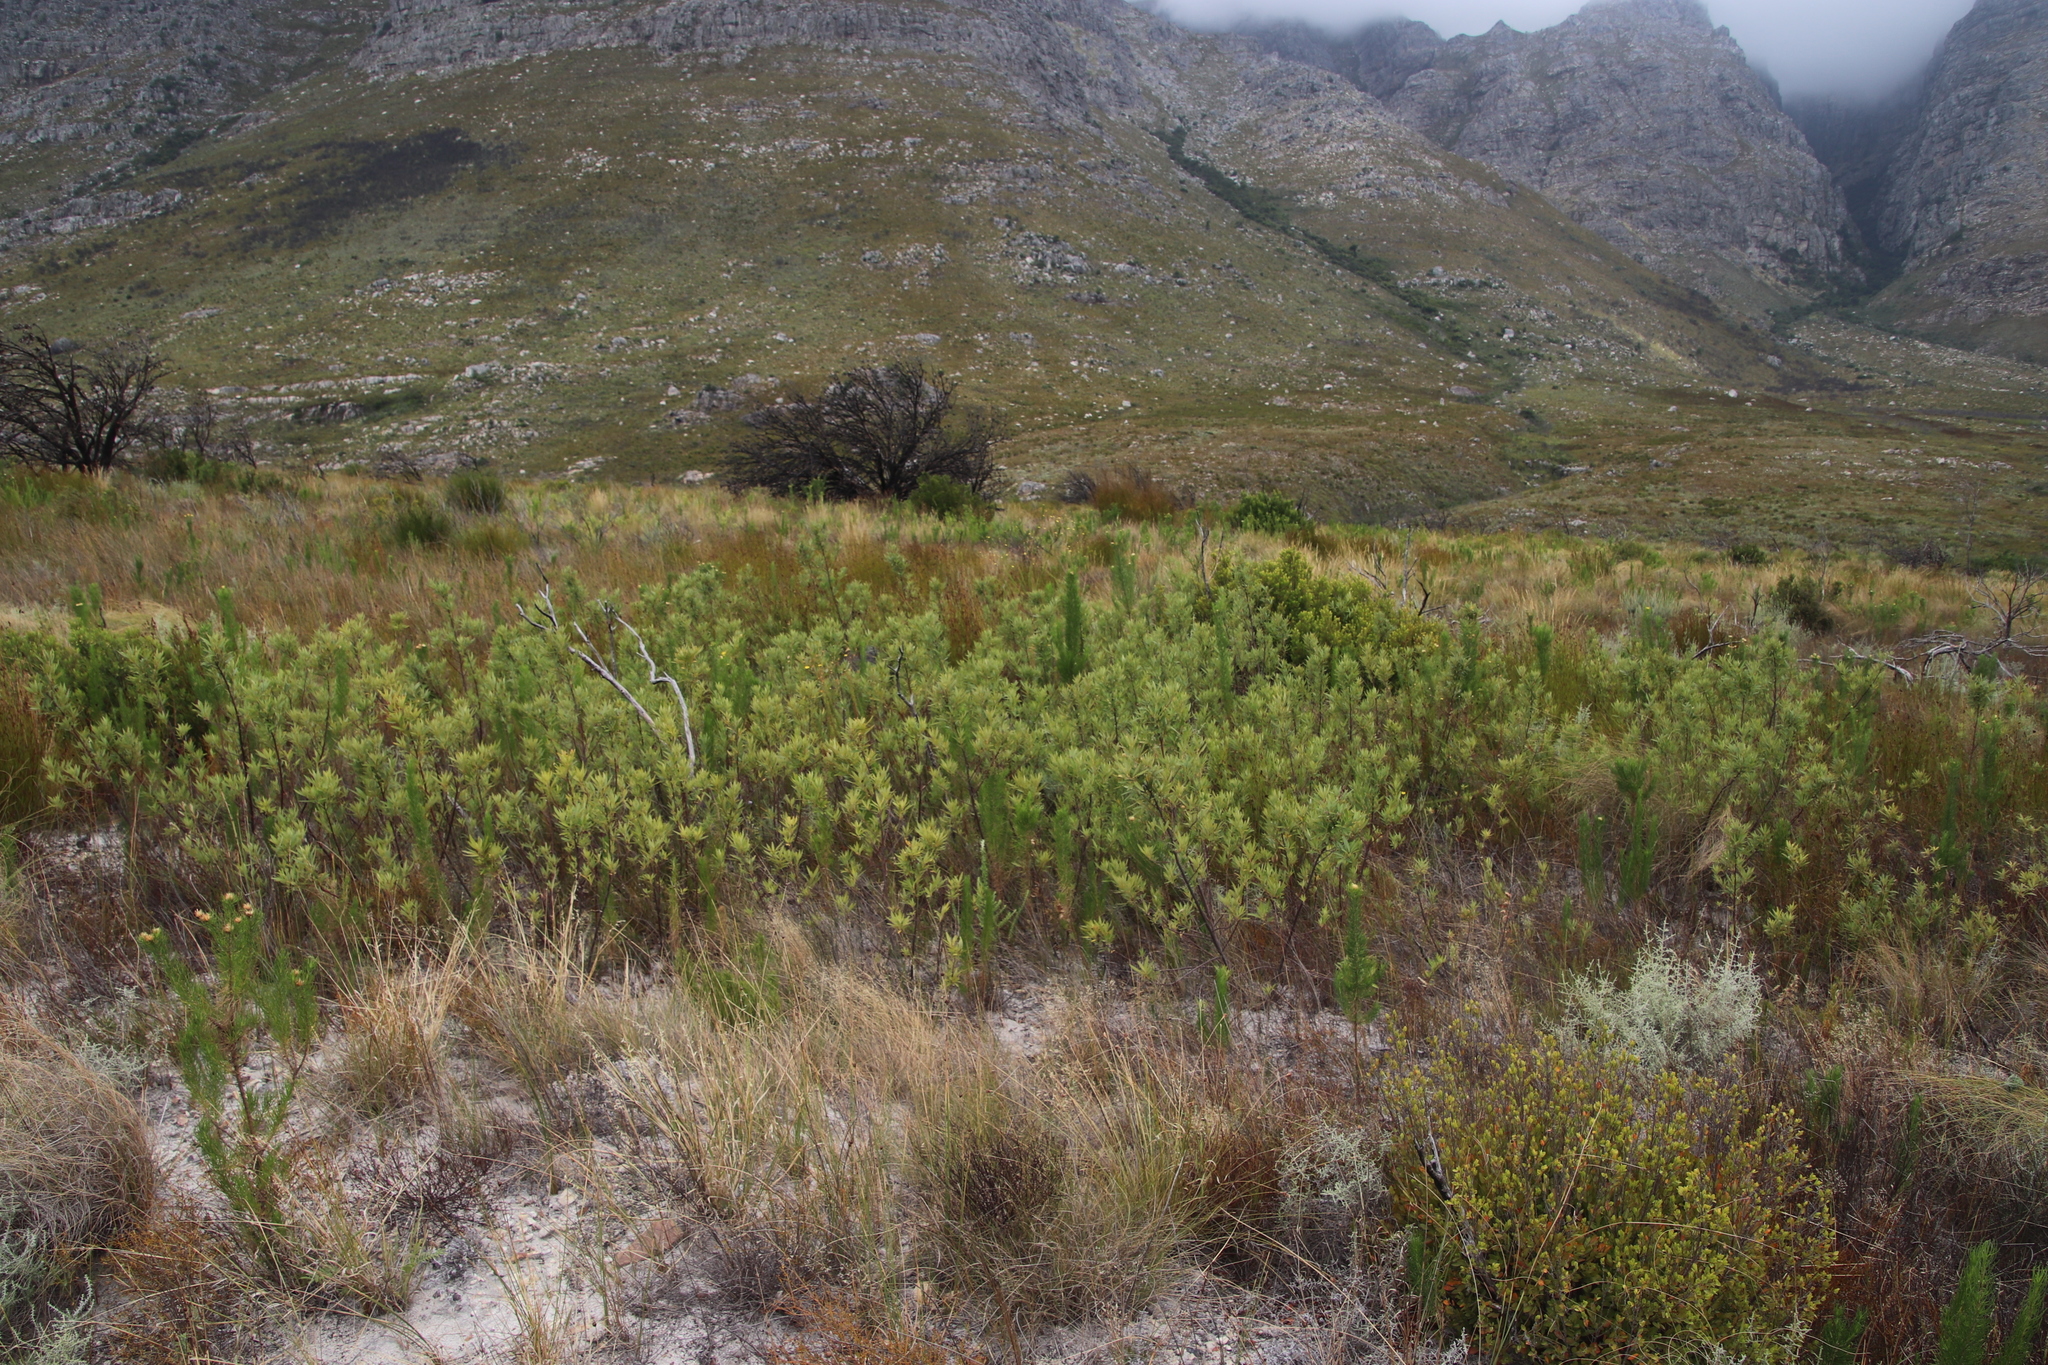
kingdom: Plantae
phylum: Tracheophyta
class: Magnoliopsida
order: Sapindales
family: Anacardiaceae
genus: Searsia
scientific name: Searsia angustifolia
